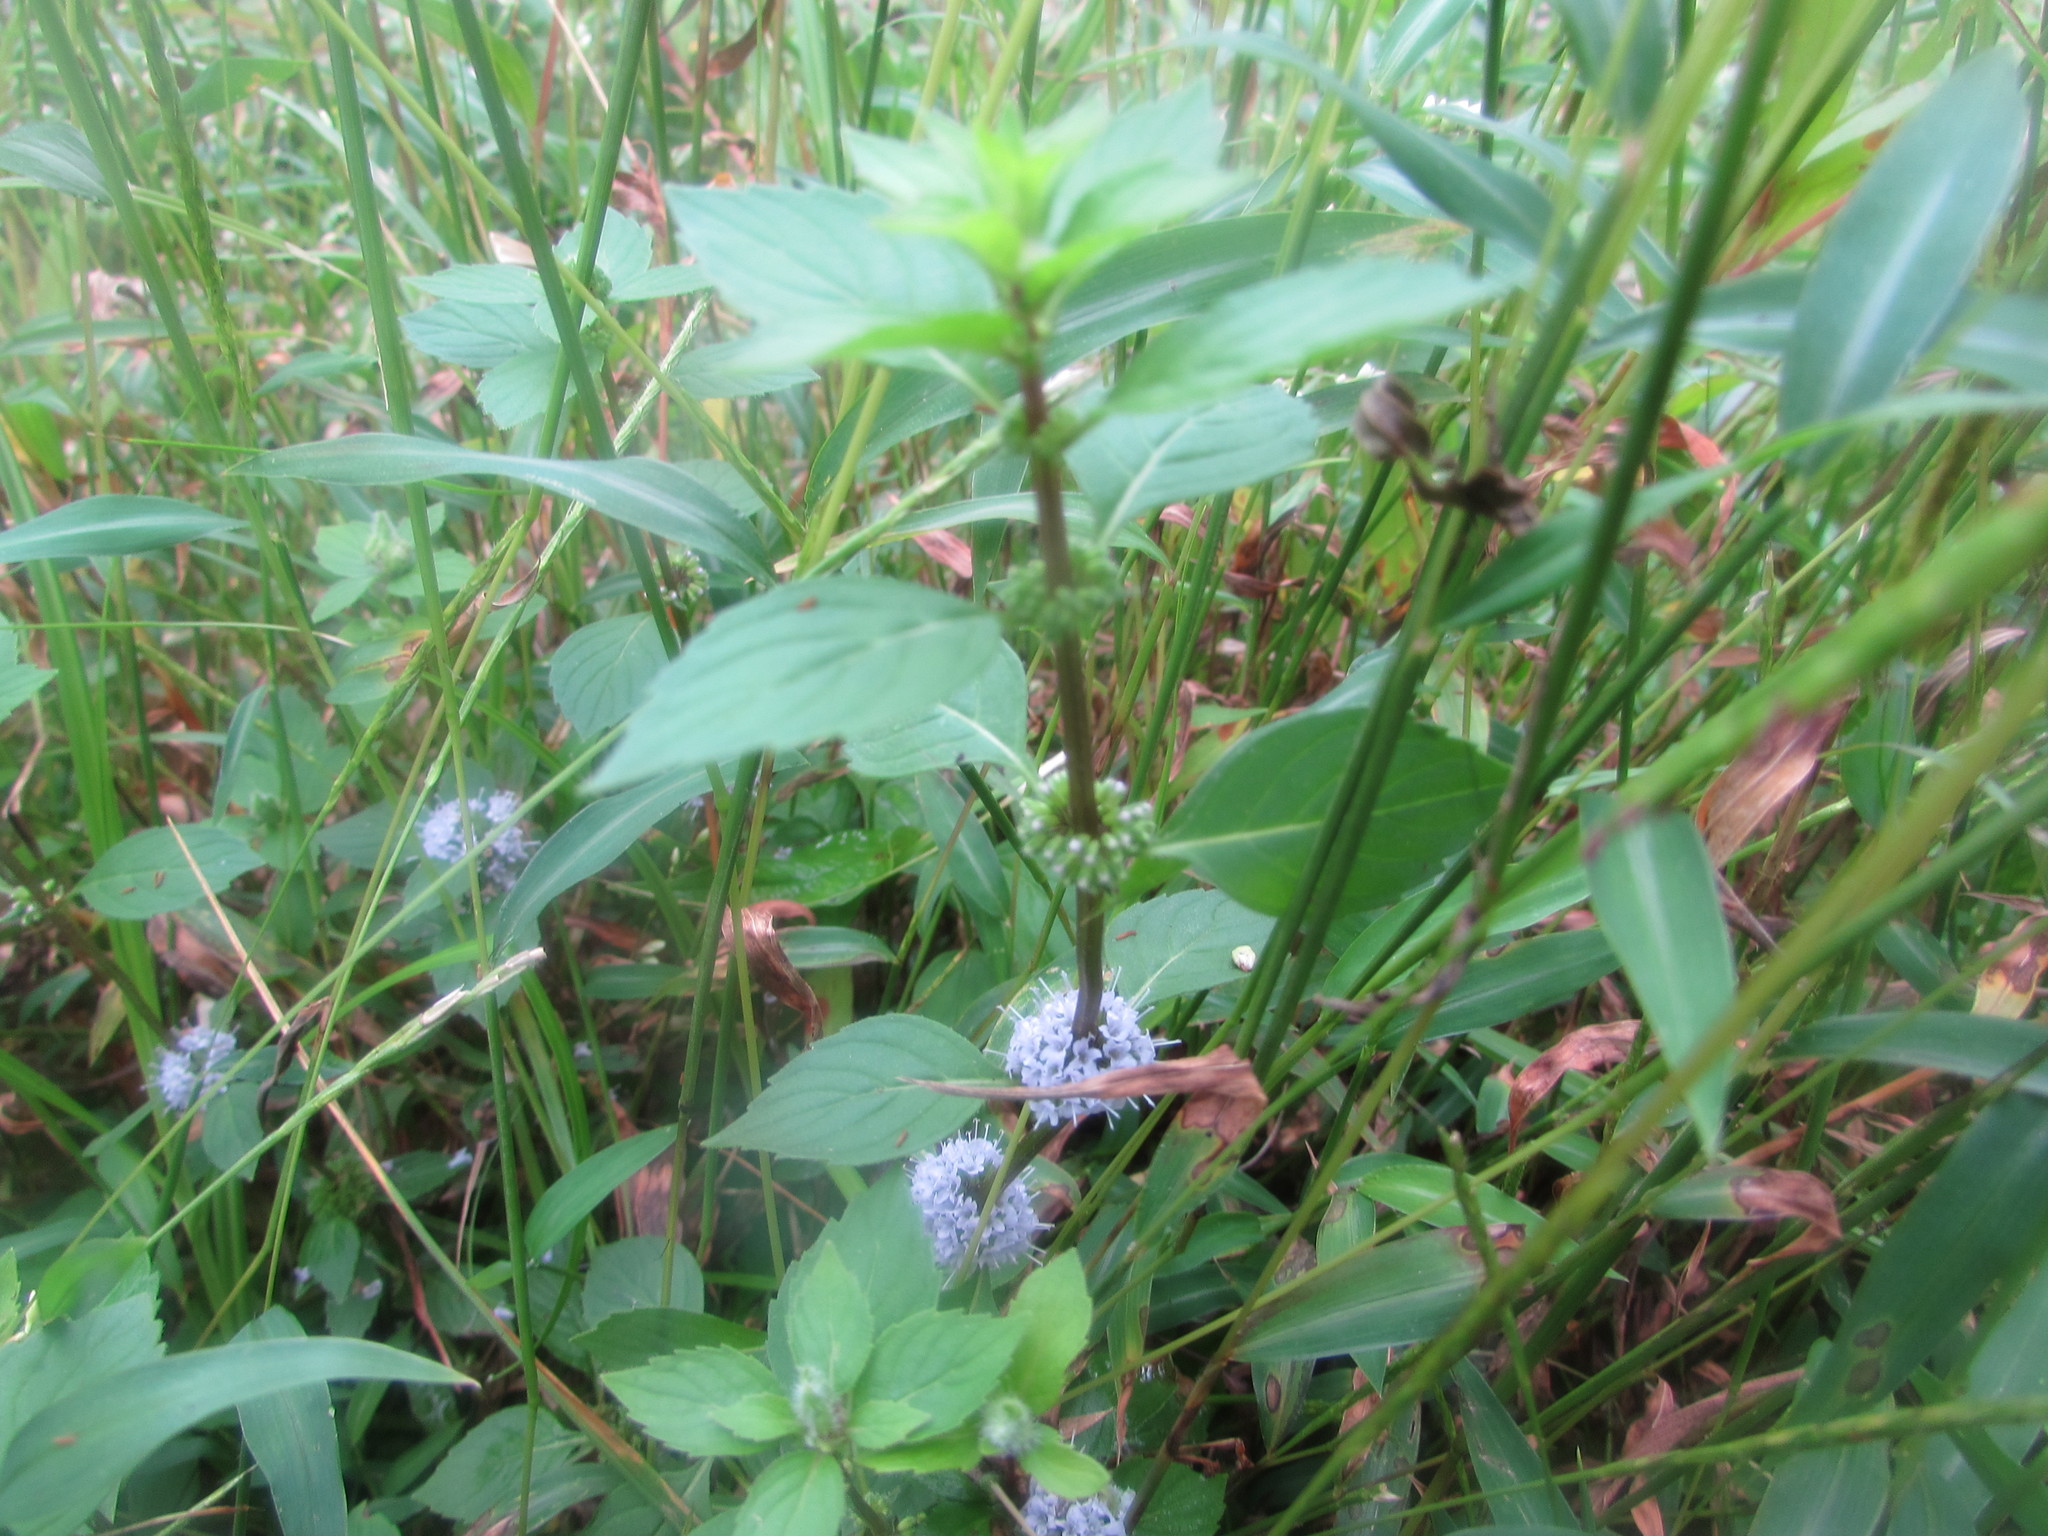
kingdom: Plantae
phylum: Tracheophyta
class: Magnoliopsida
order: Lamiales
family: Lamiaceae
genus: Mentha
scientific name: Mentha canadensis
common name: American corn mint
